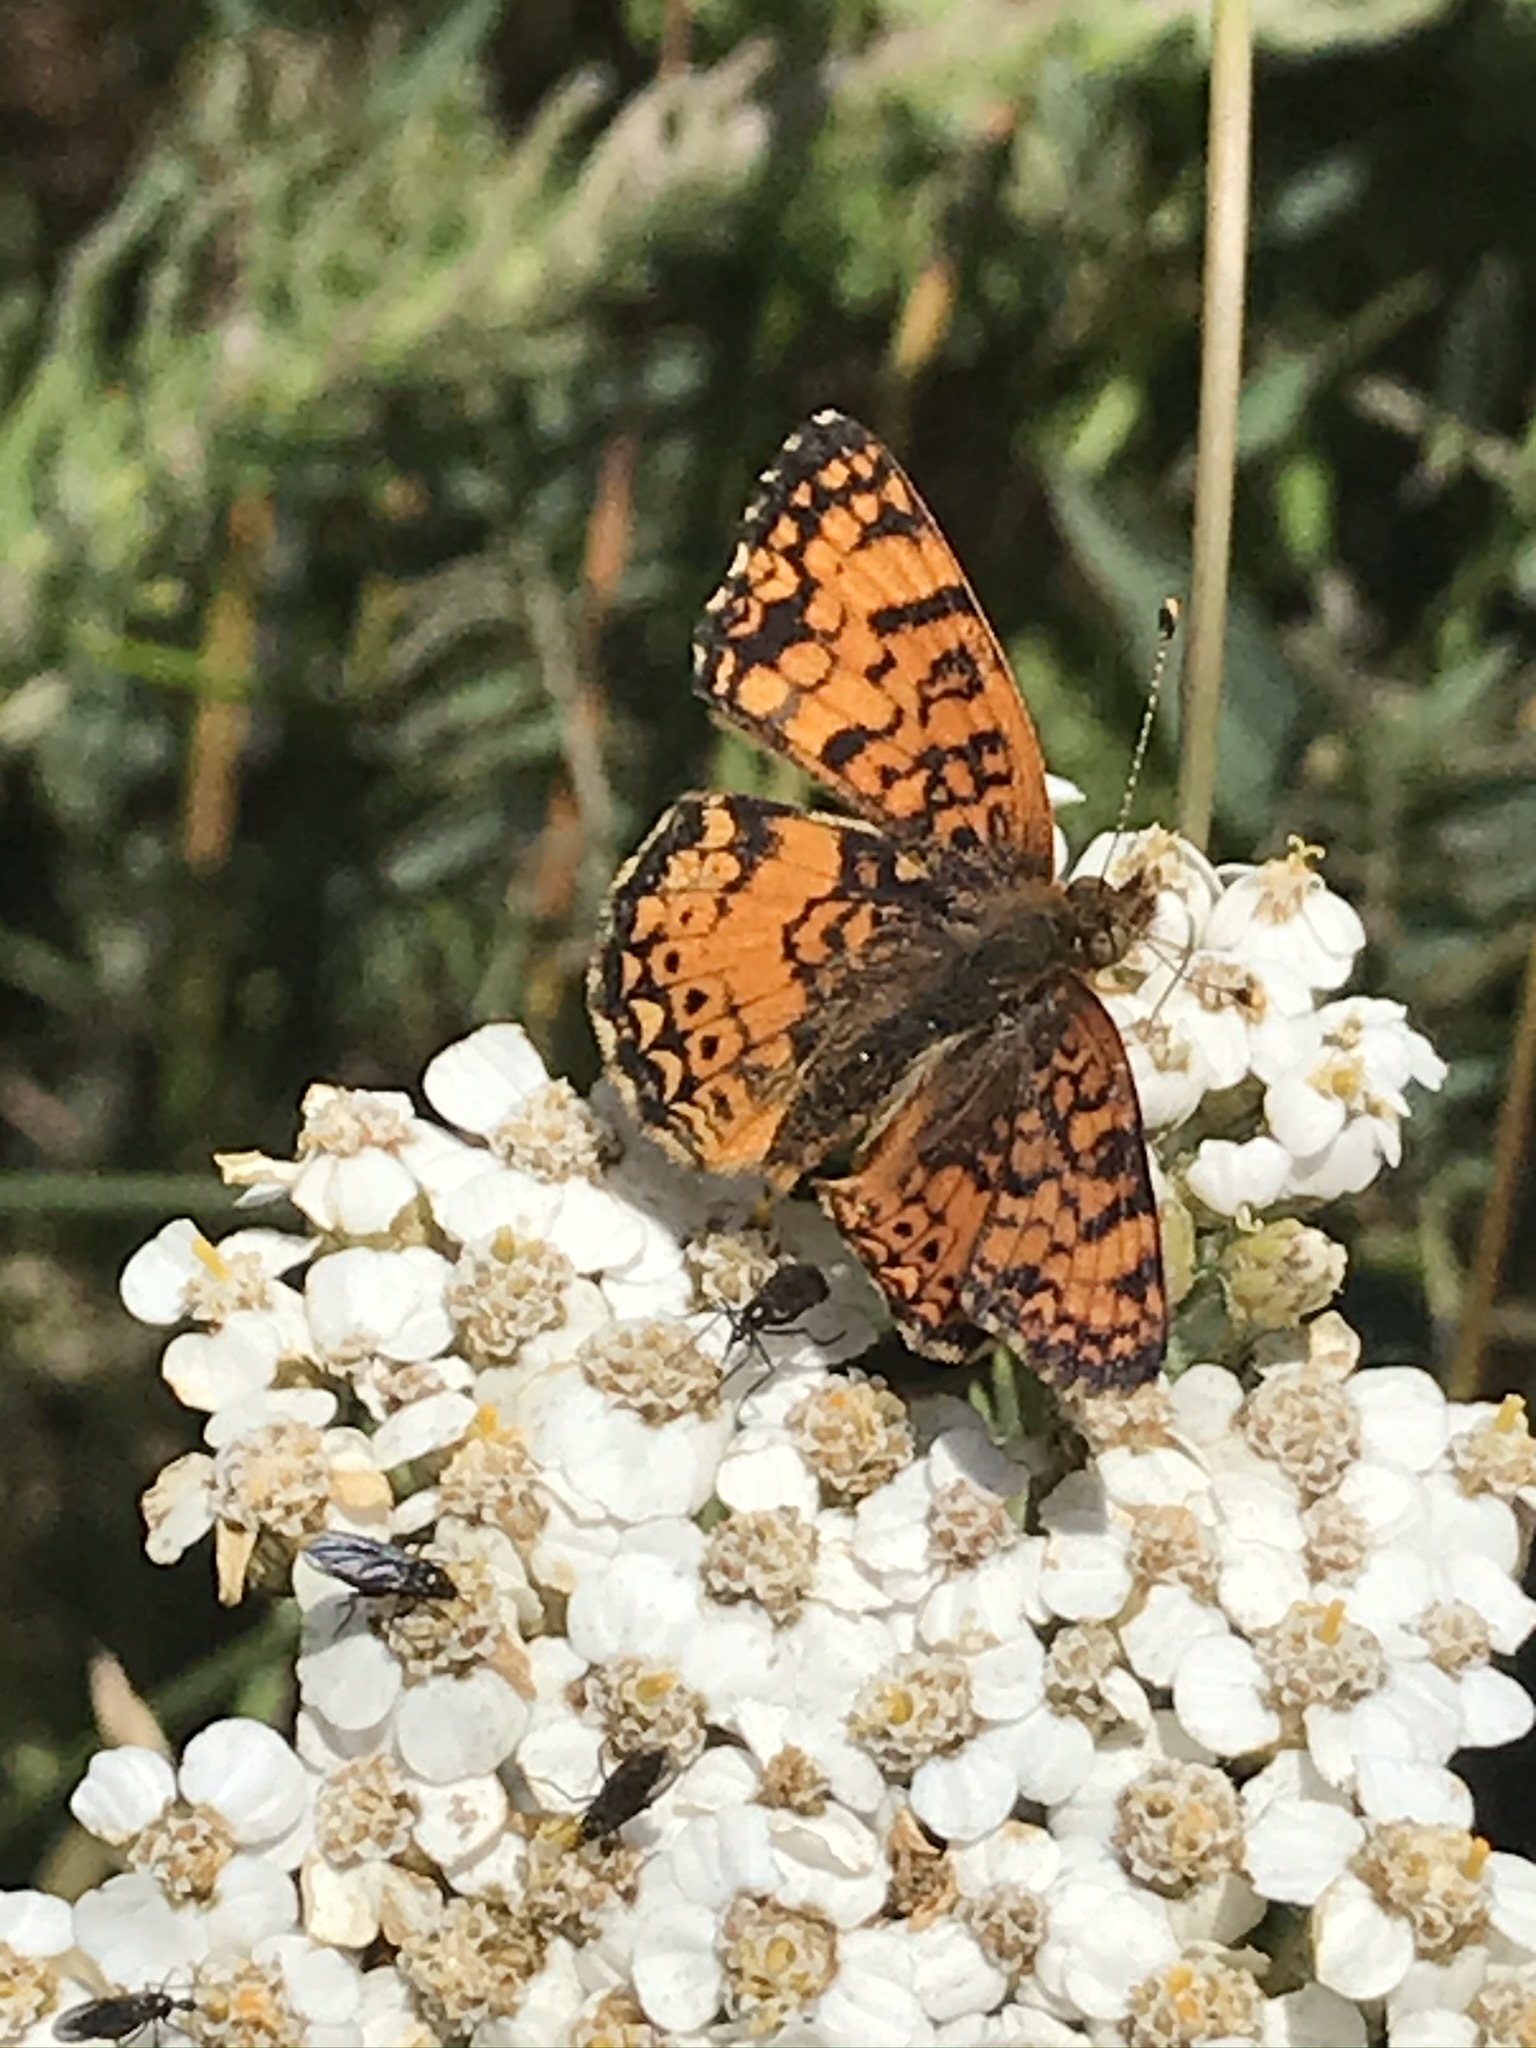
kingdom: Animalia
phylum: Arthropoda
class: Insecta
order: Lepidoptera
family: Nymphalidae
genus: Eresia
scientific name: Eresia aveyrona
